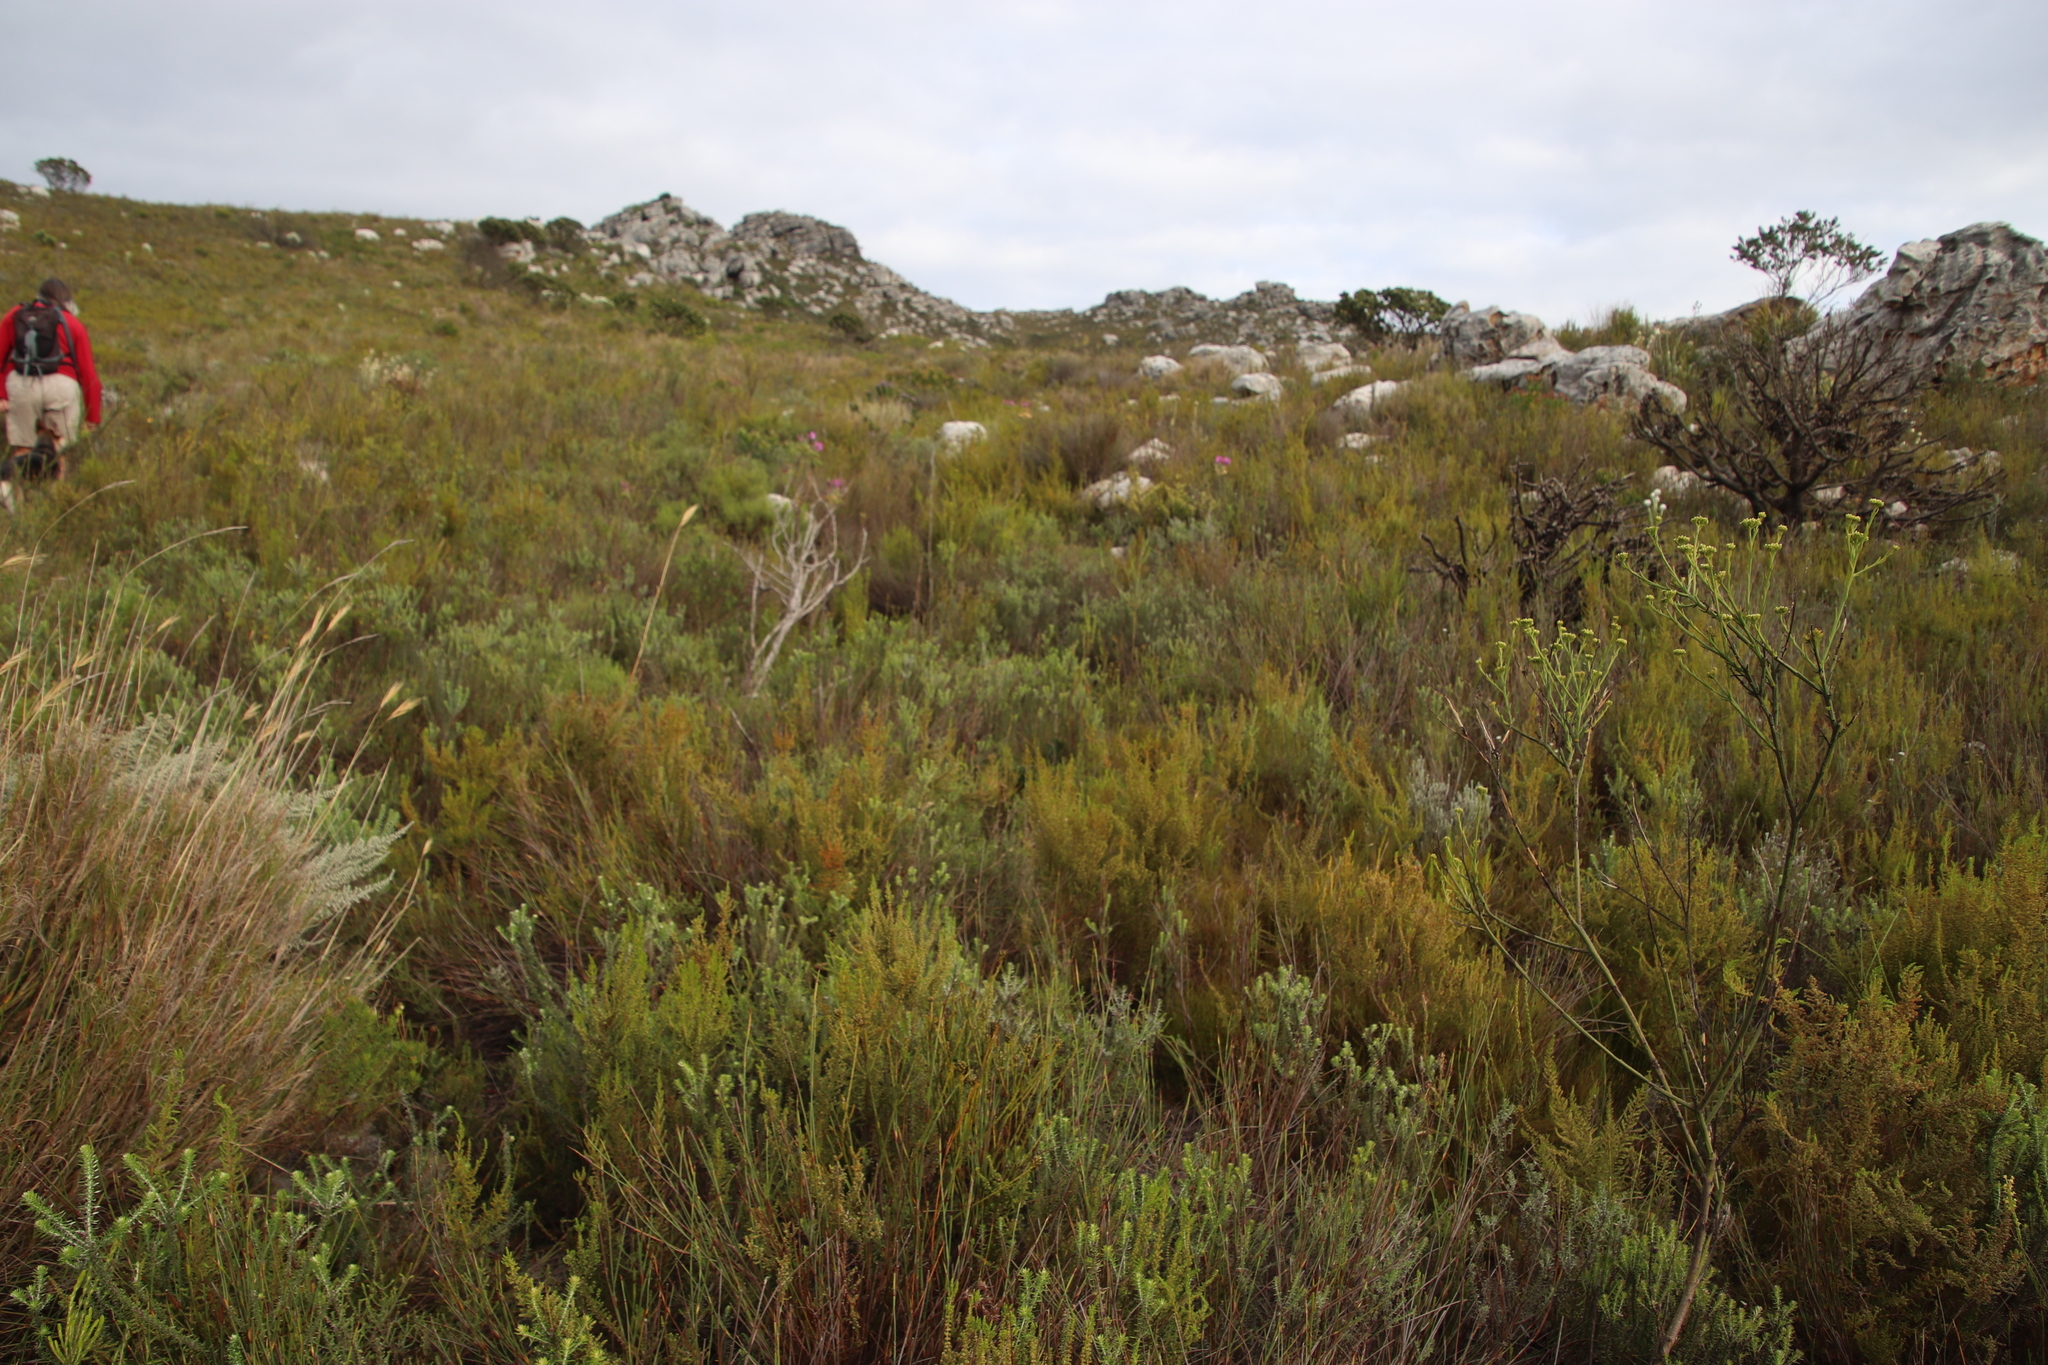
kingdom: Plantae
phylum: Tracheophyta
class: Magnoliopsida
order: Ericales
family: Ericaceae
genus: Erica
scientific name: Erica muscosa
